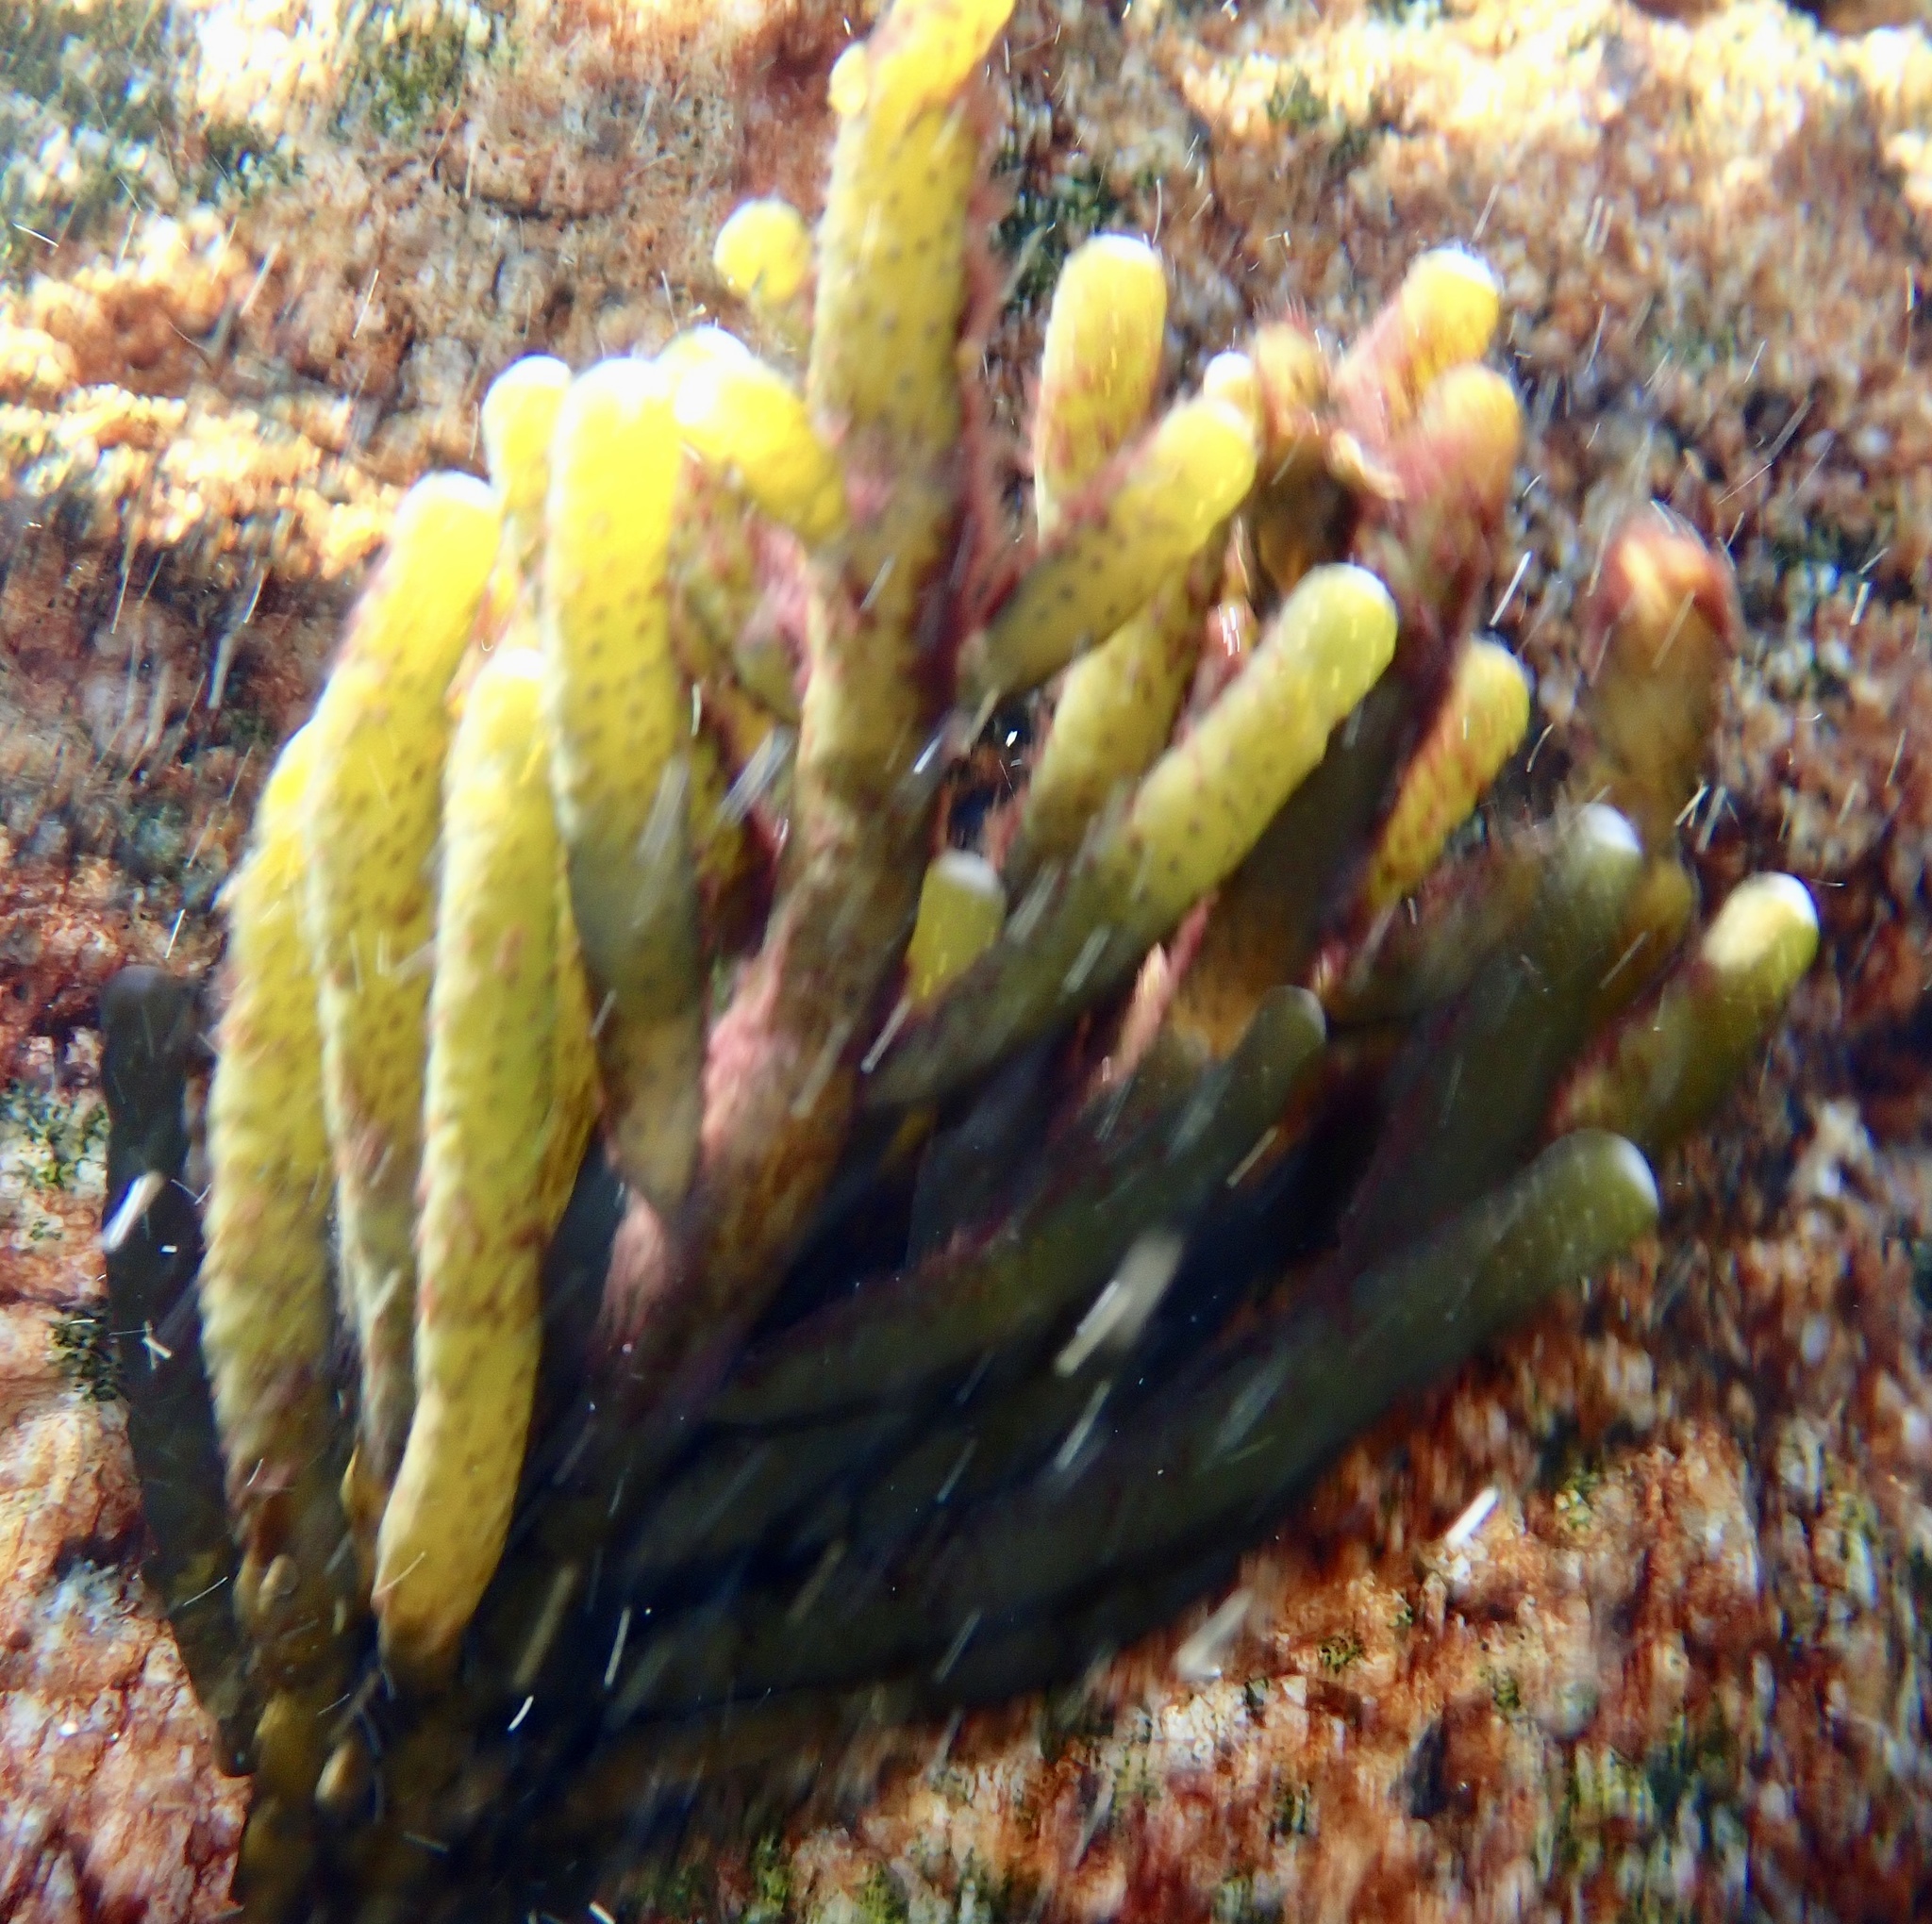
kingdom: Chromista
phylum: Ochrophyta
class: Phaeophyceae
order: Scytothamnales
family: Splachnidiaceae
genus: Splachnidium
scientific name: Splachnidium rugosum
